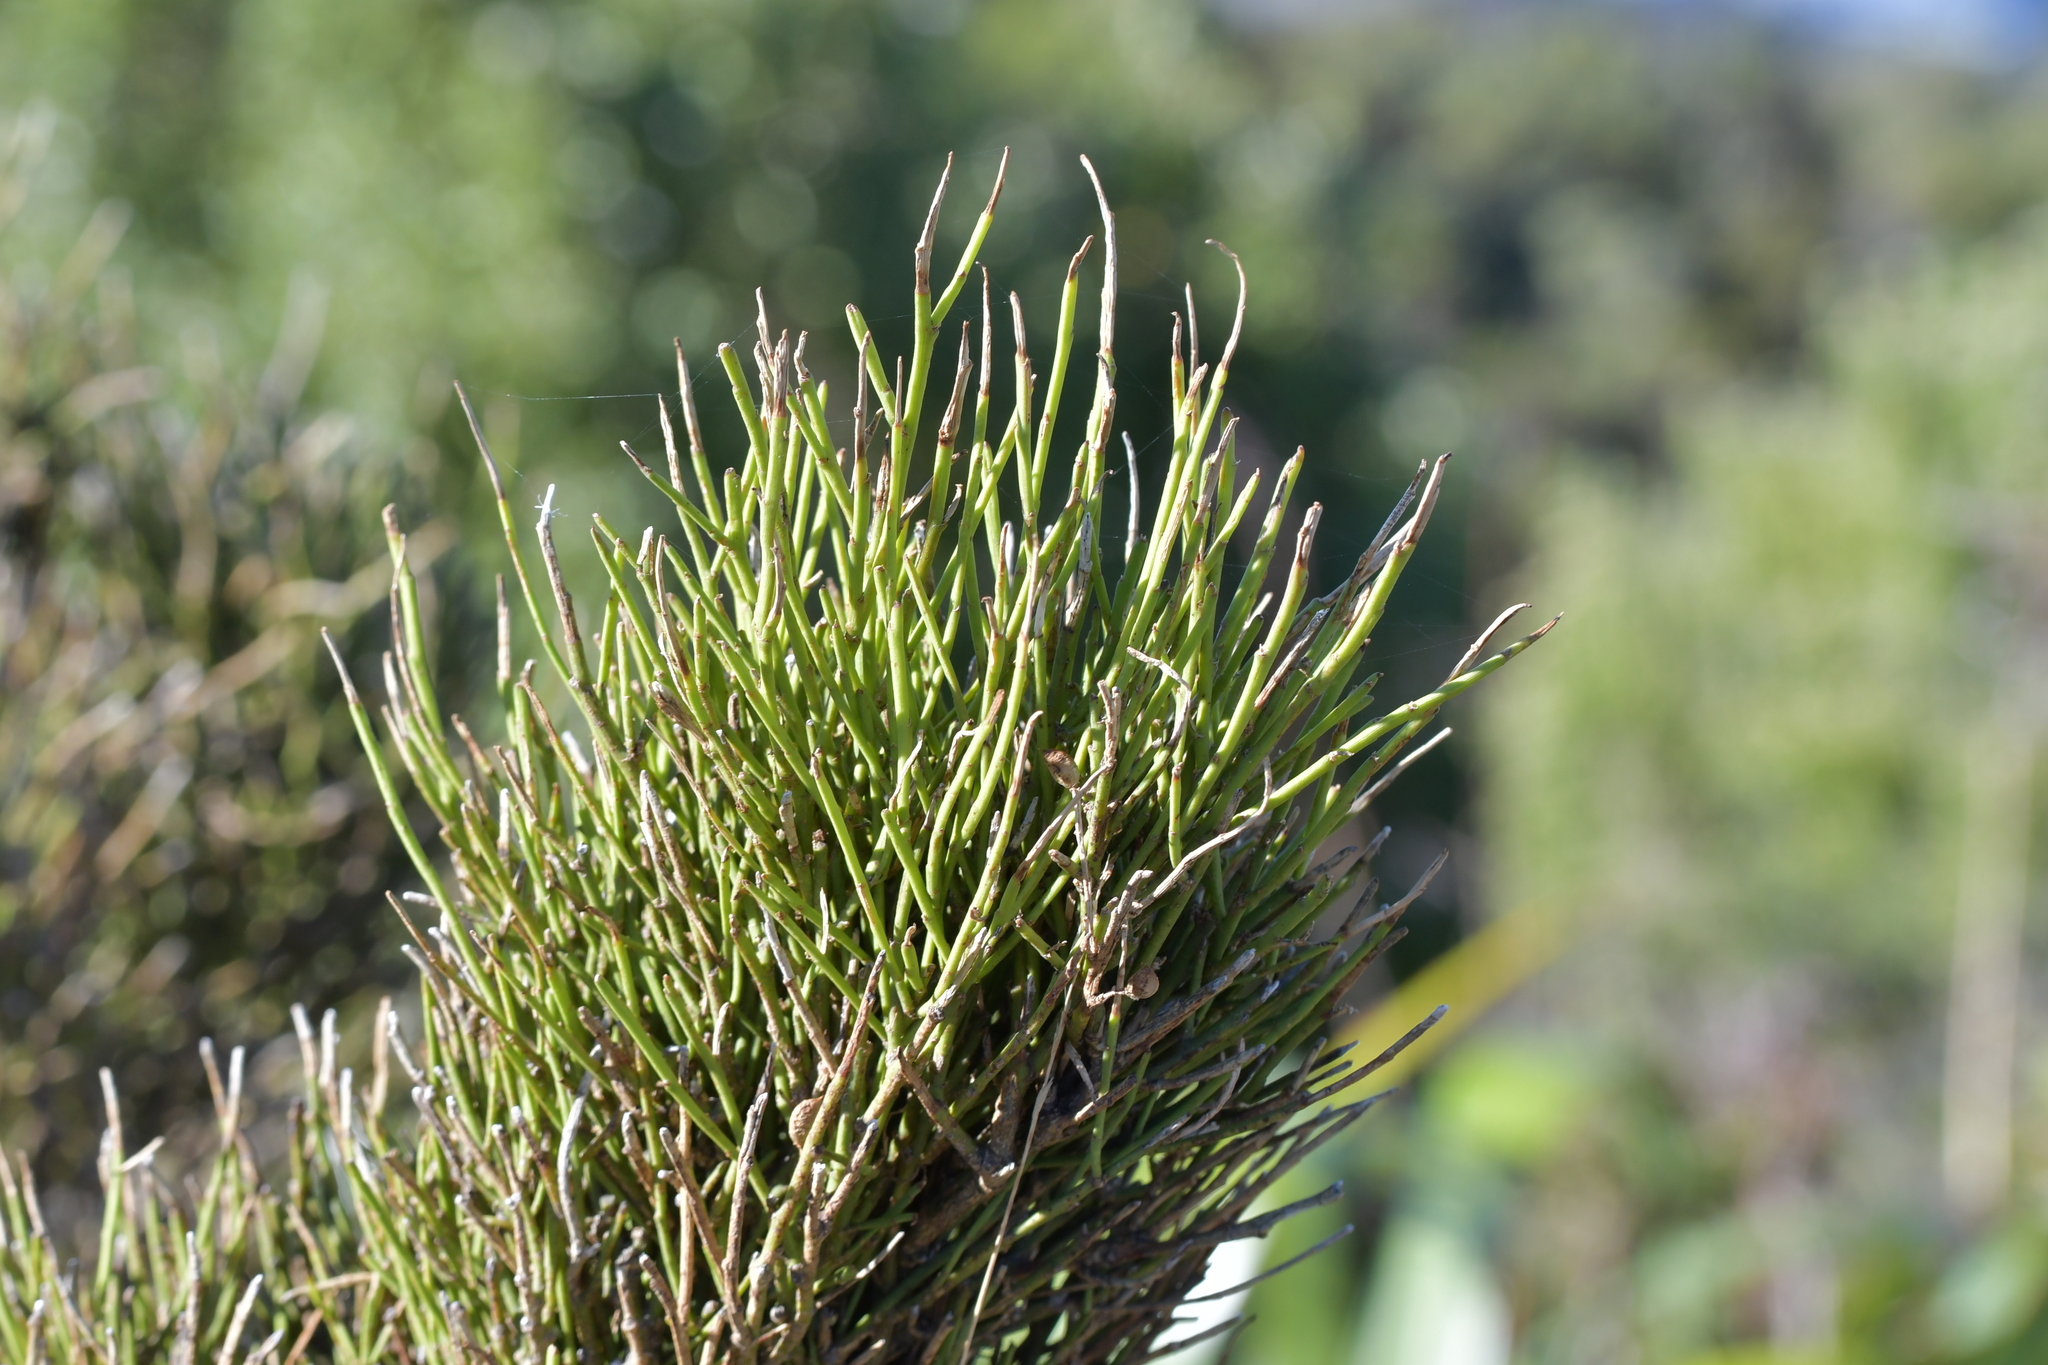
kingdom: Plantae
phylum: Tracheophyta
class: Magnoliopsida
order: Fabales
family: Fabaceae
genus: Carmichaelia
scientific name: Carmichaelia australis
